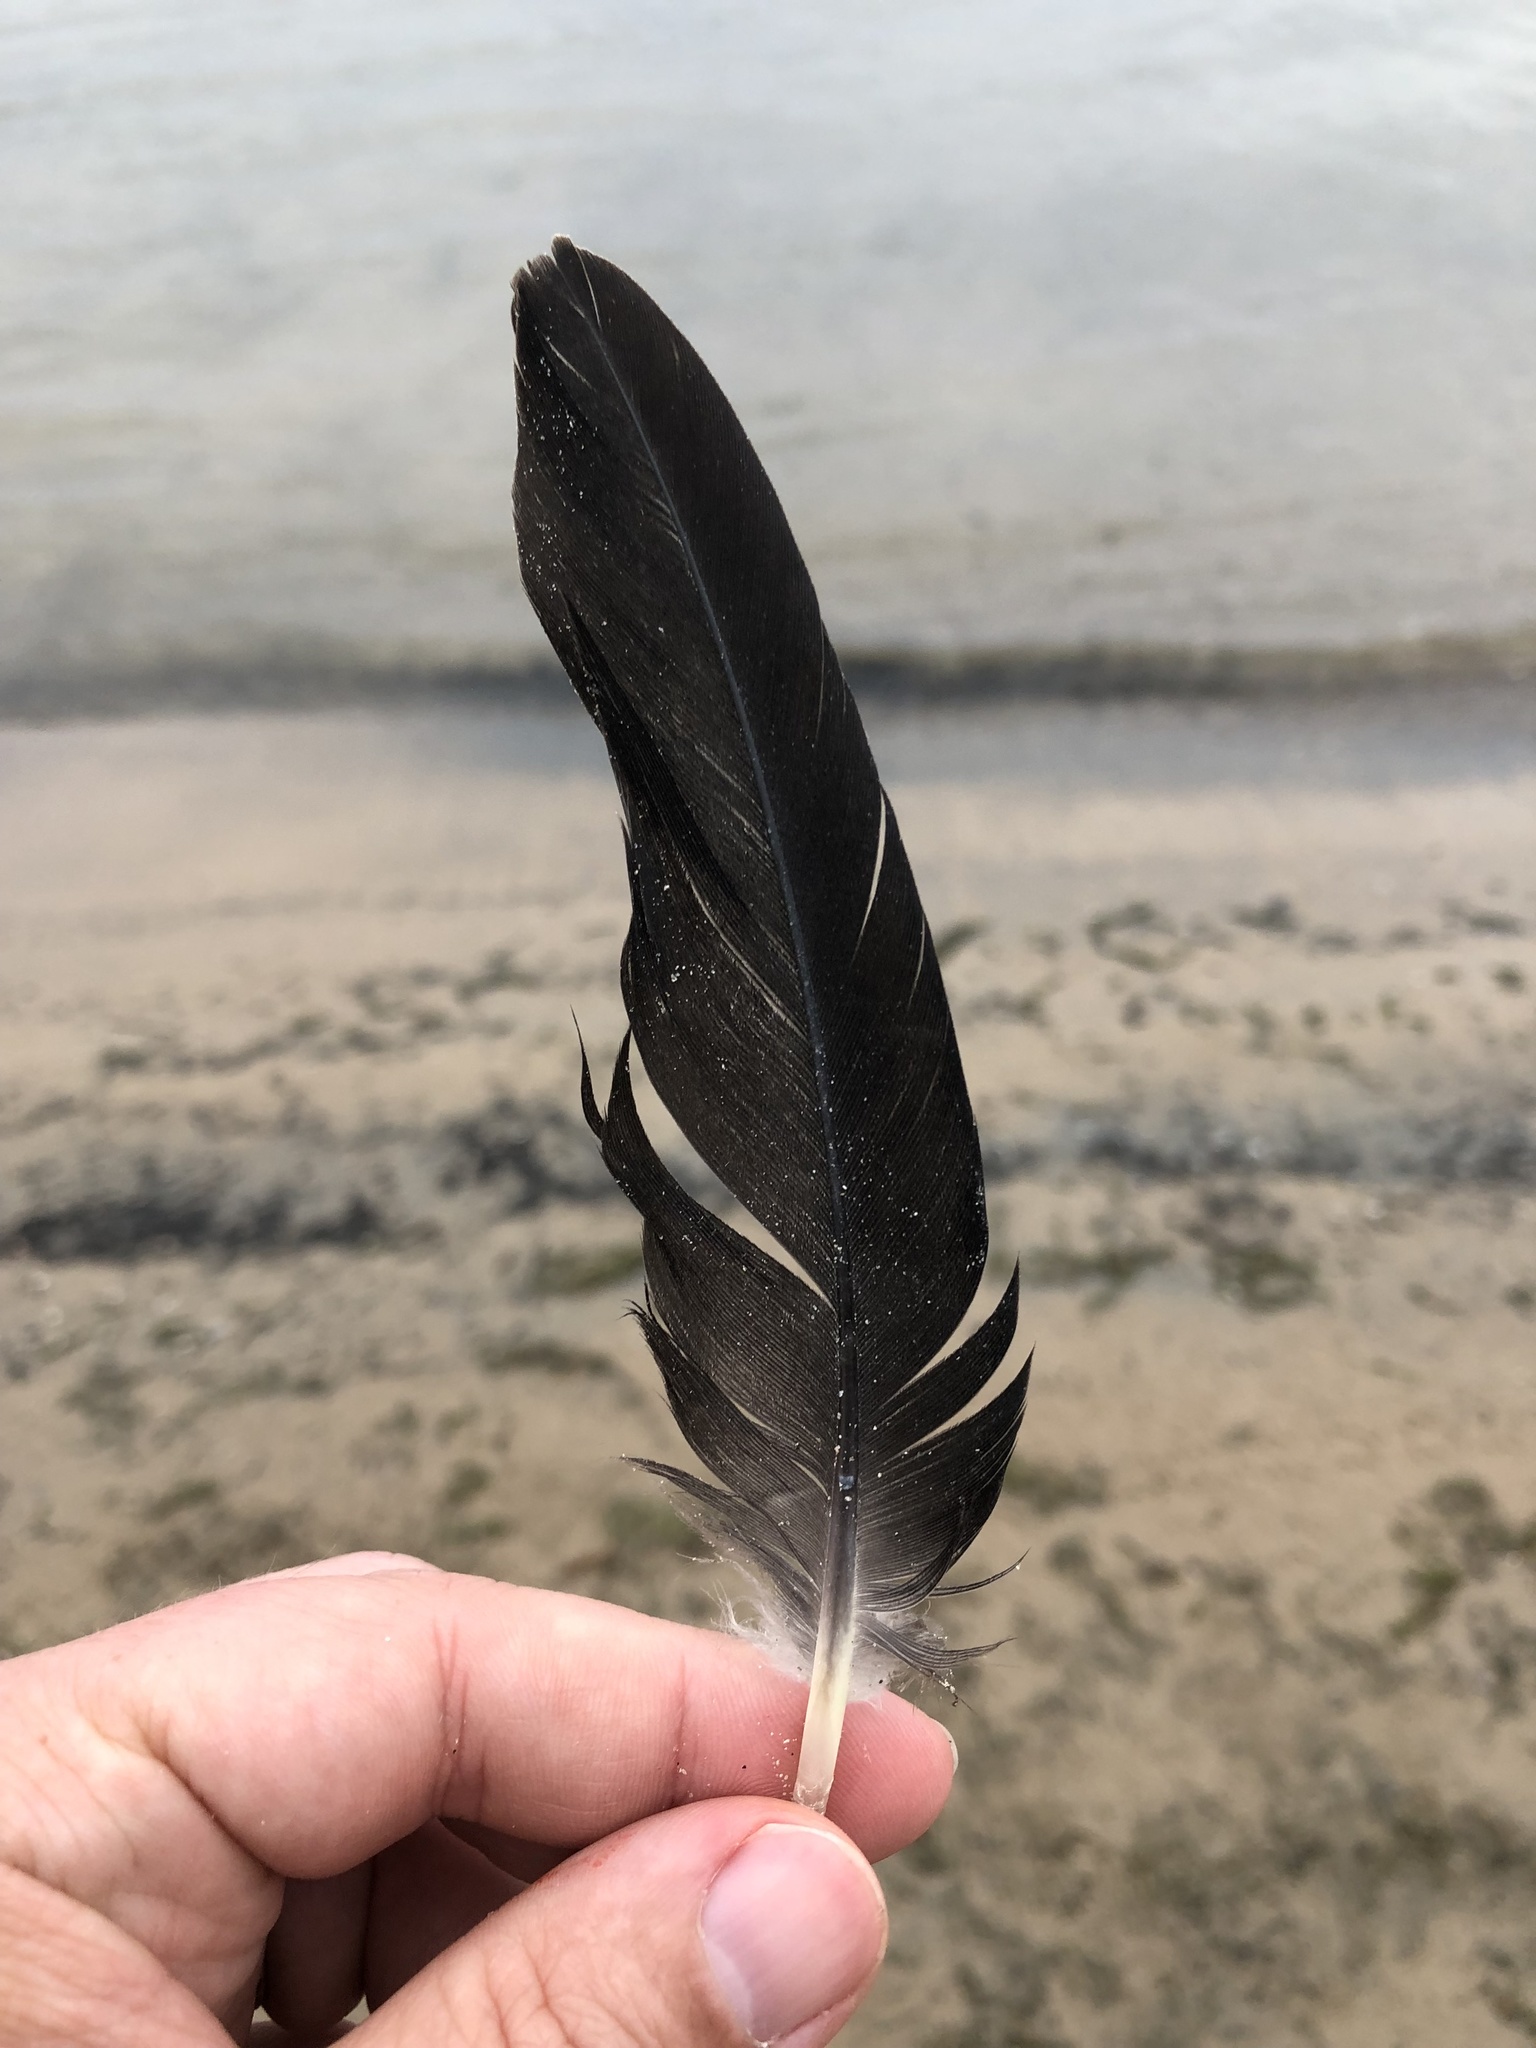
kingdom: Animalia
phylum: Chordata
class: Aves
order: Anseriformes
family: Anatidae
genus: Branta
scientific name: Branta canadensis
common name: Canada goose
